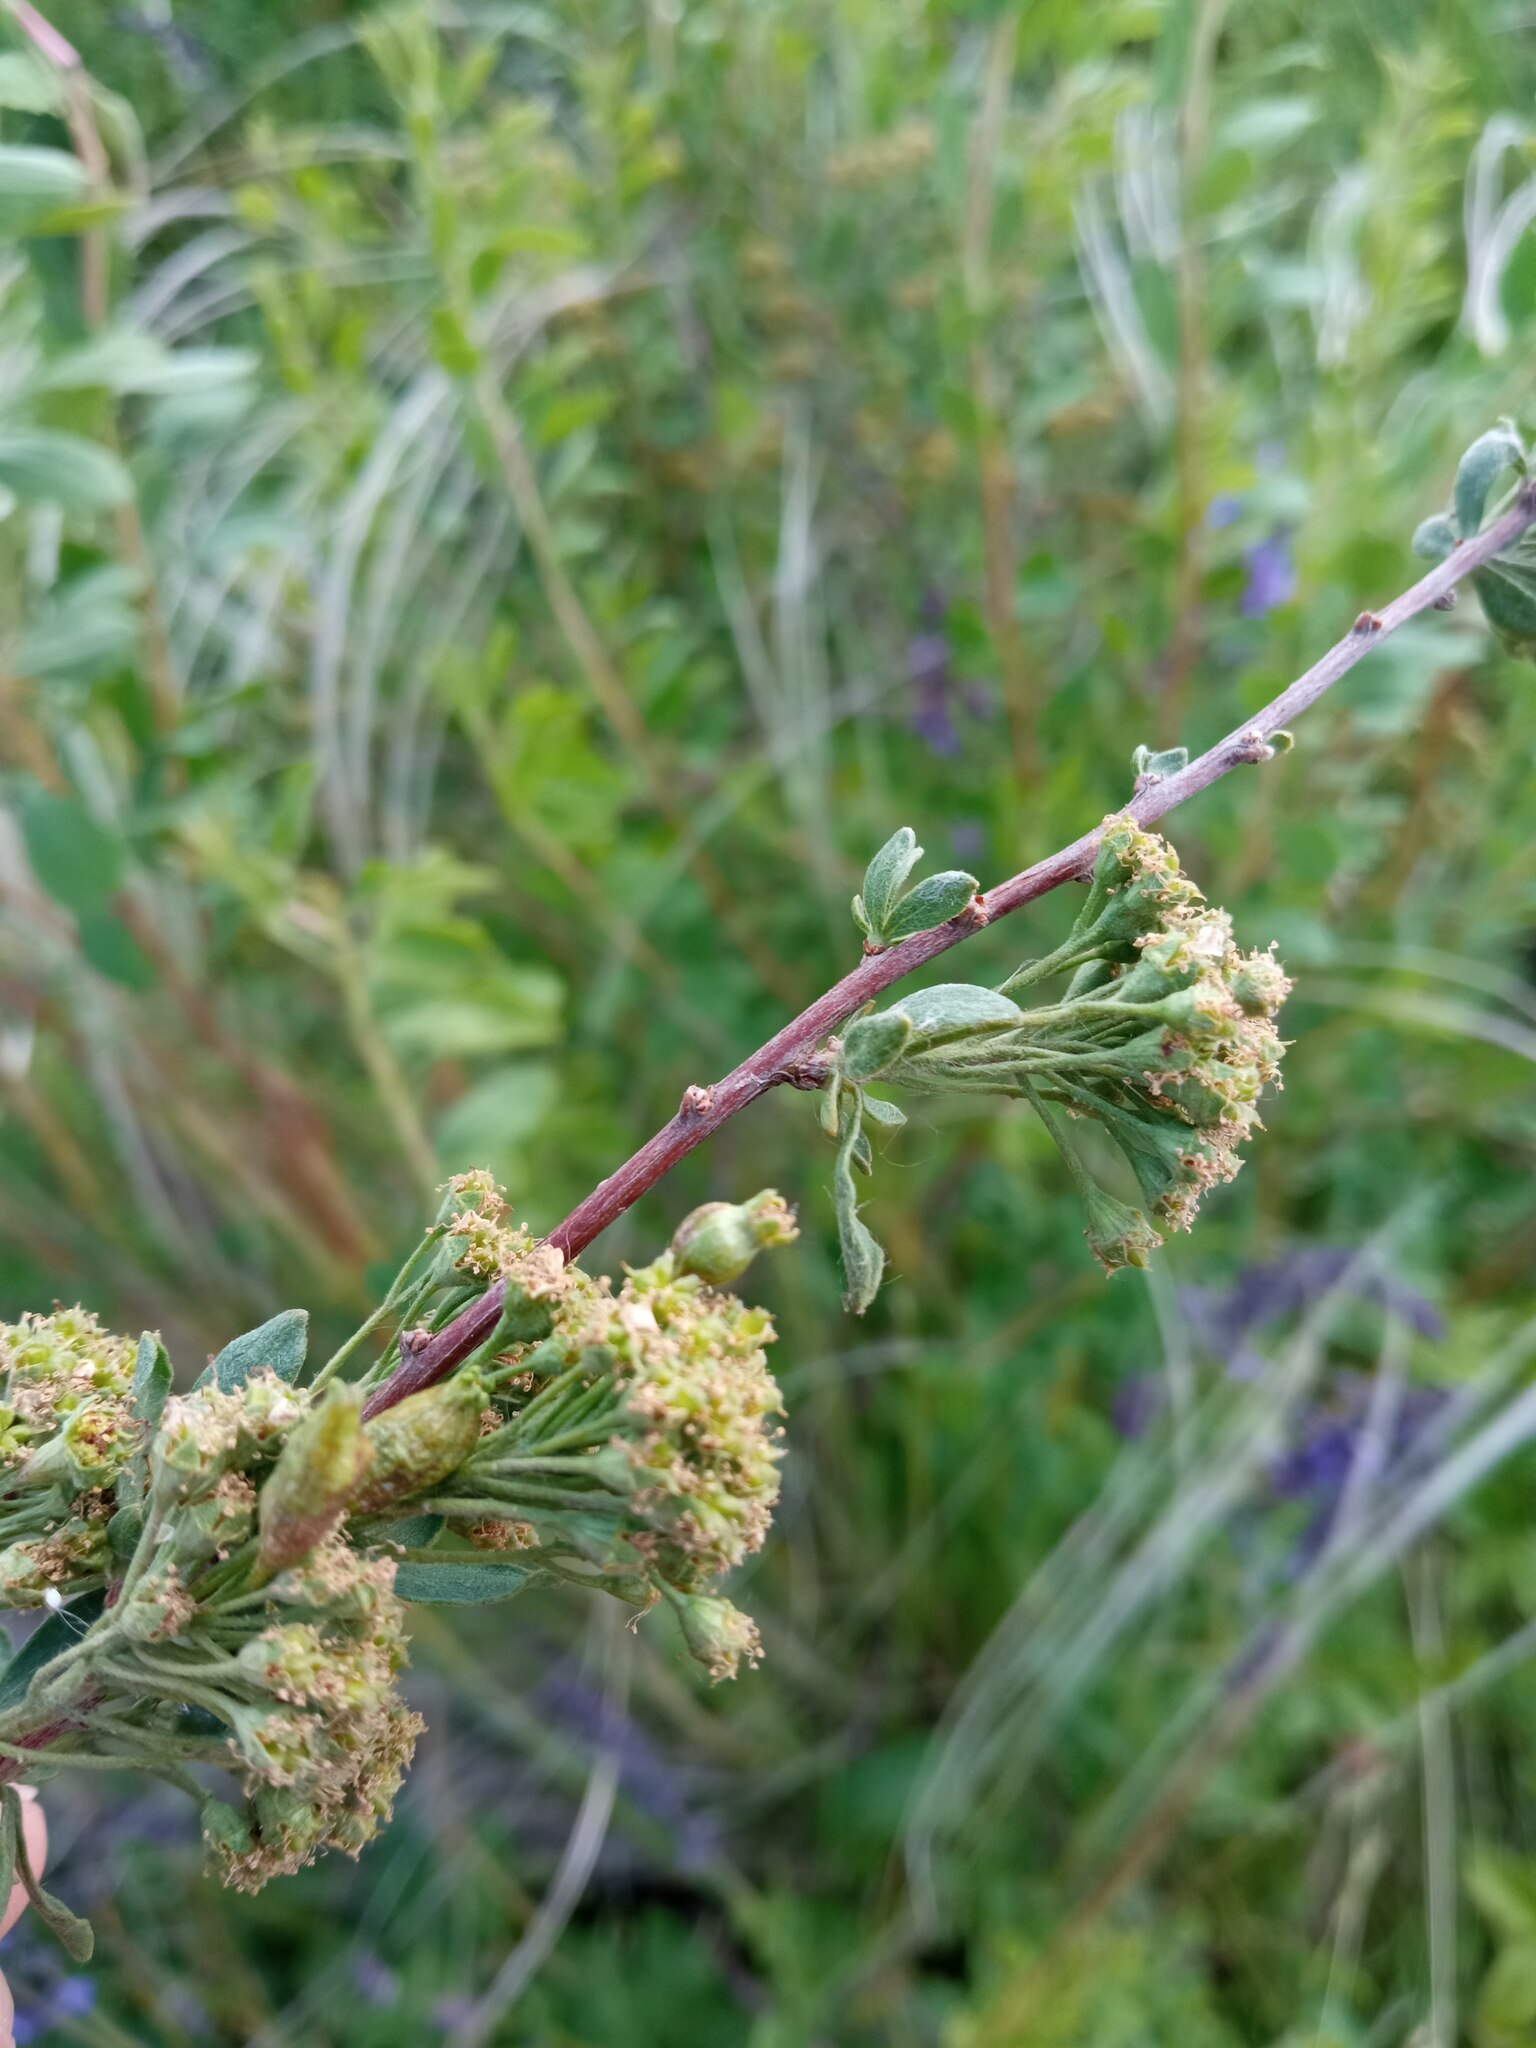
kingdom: Plantae
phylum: Tracheophyta
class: Magnoliopsida
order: Rosales
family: Rosaceae
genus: Spiraea
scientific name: Spiraea crenata
